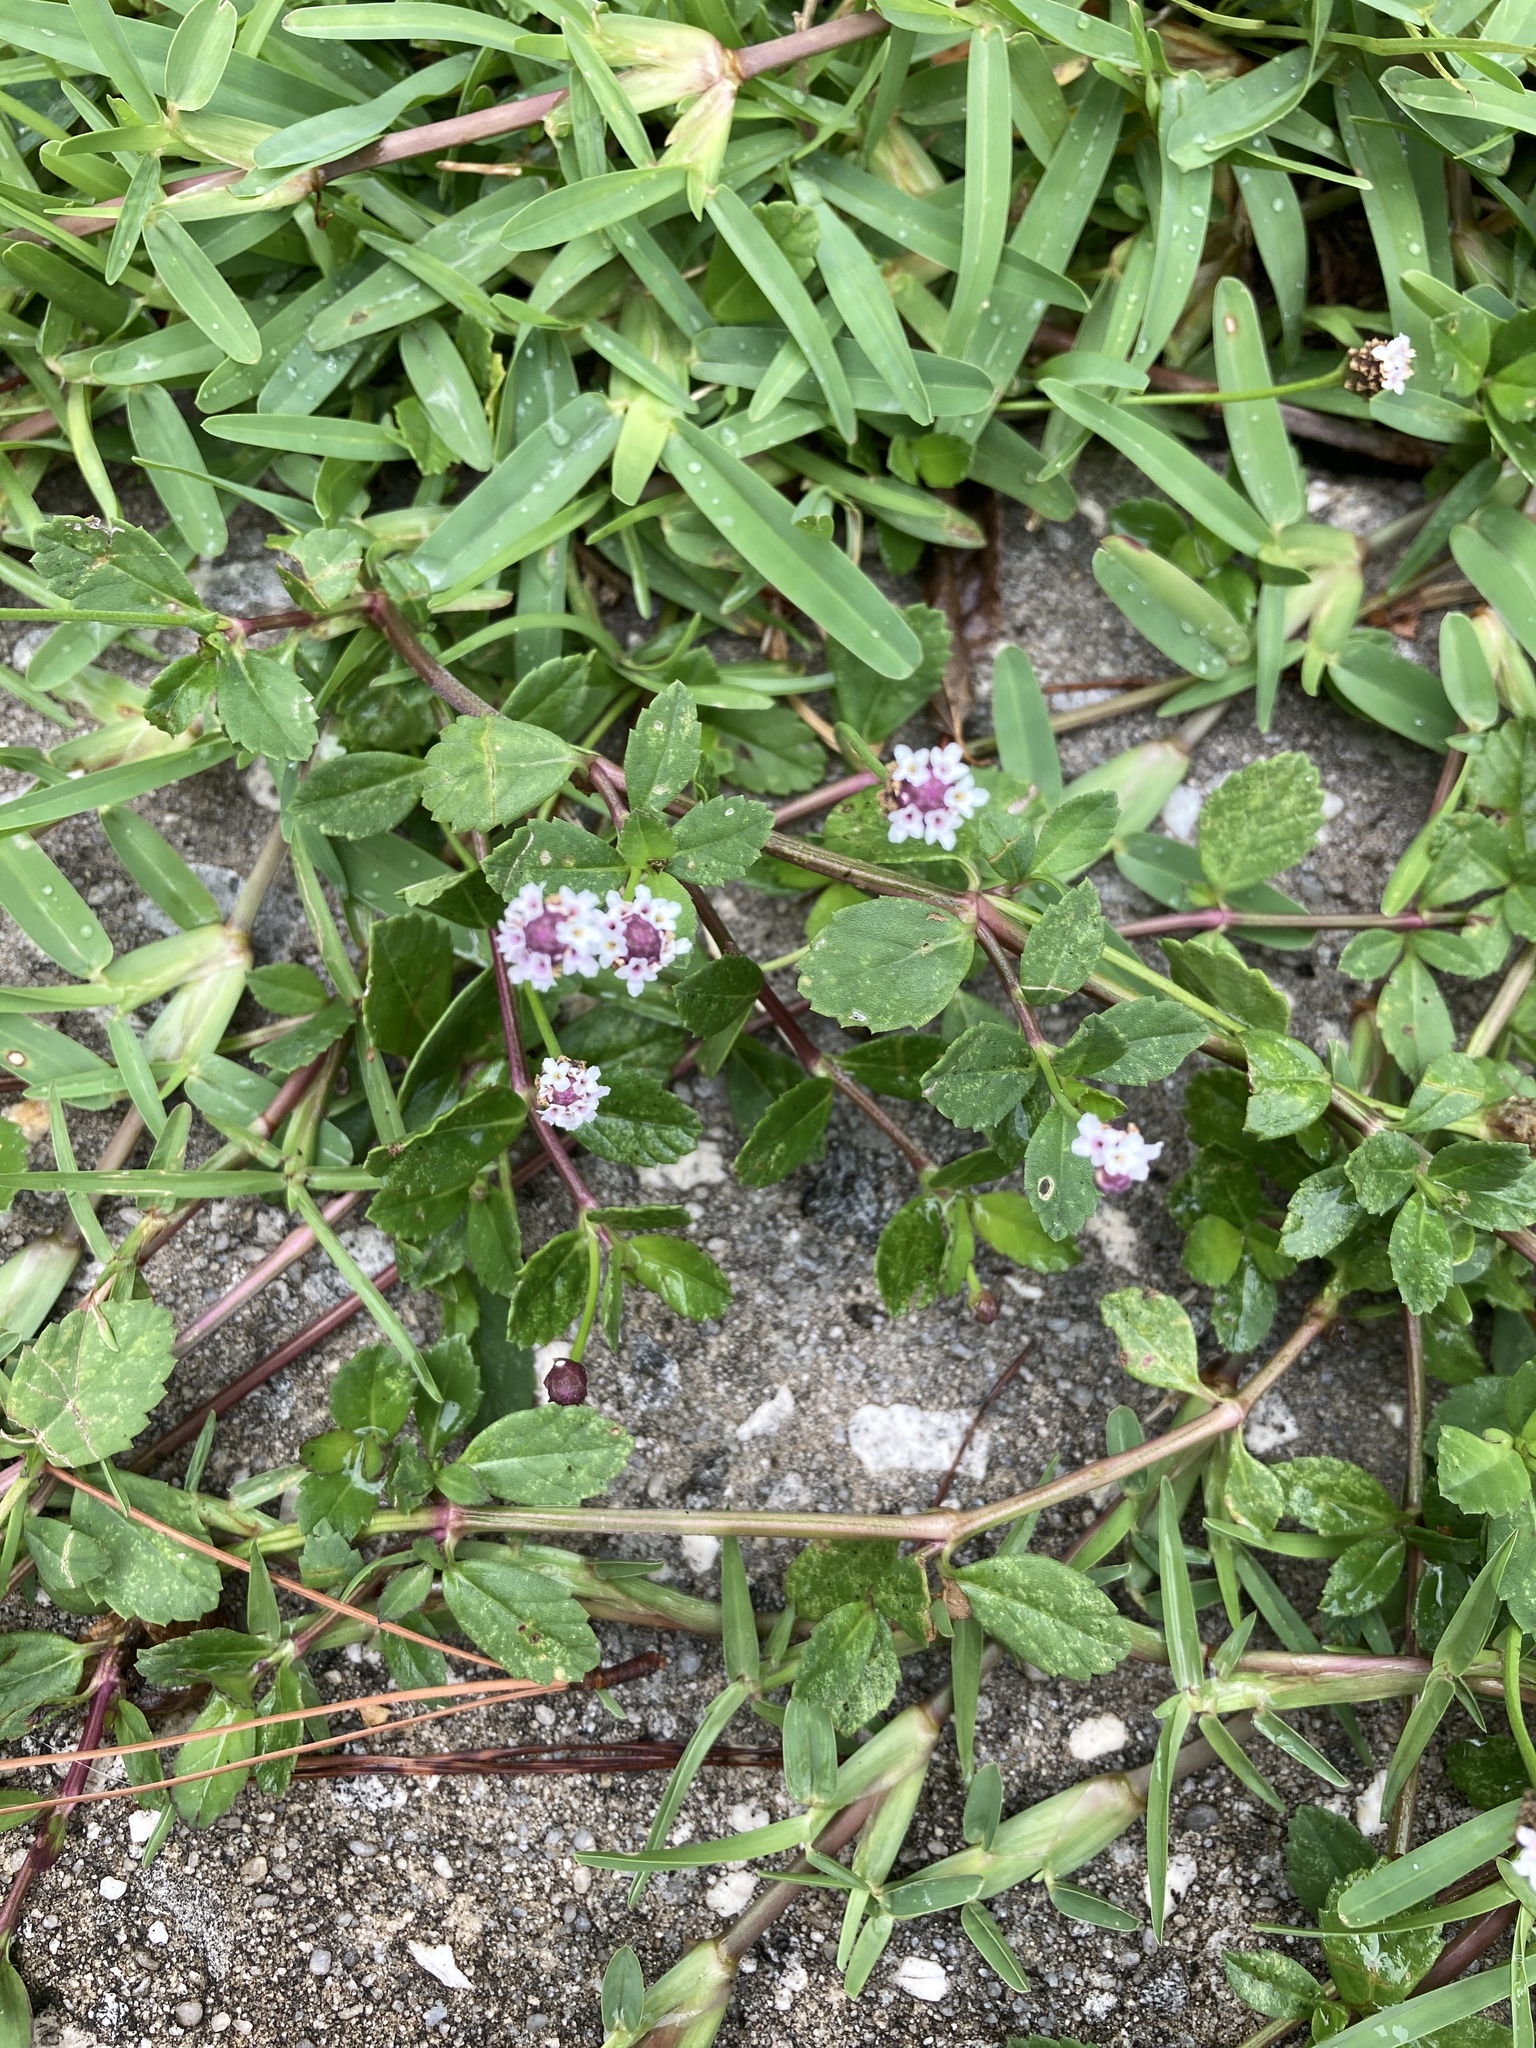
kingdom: Plantae
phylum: Tracheophyta
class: Magnoliopsida
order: Lamiales
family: Verbenaceae
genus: Phyla
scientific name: Phyla nodiflora
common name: Frogfruit
